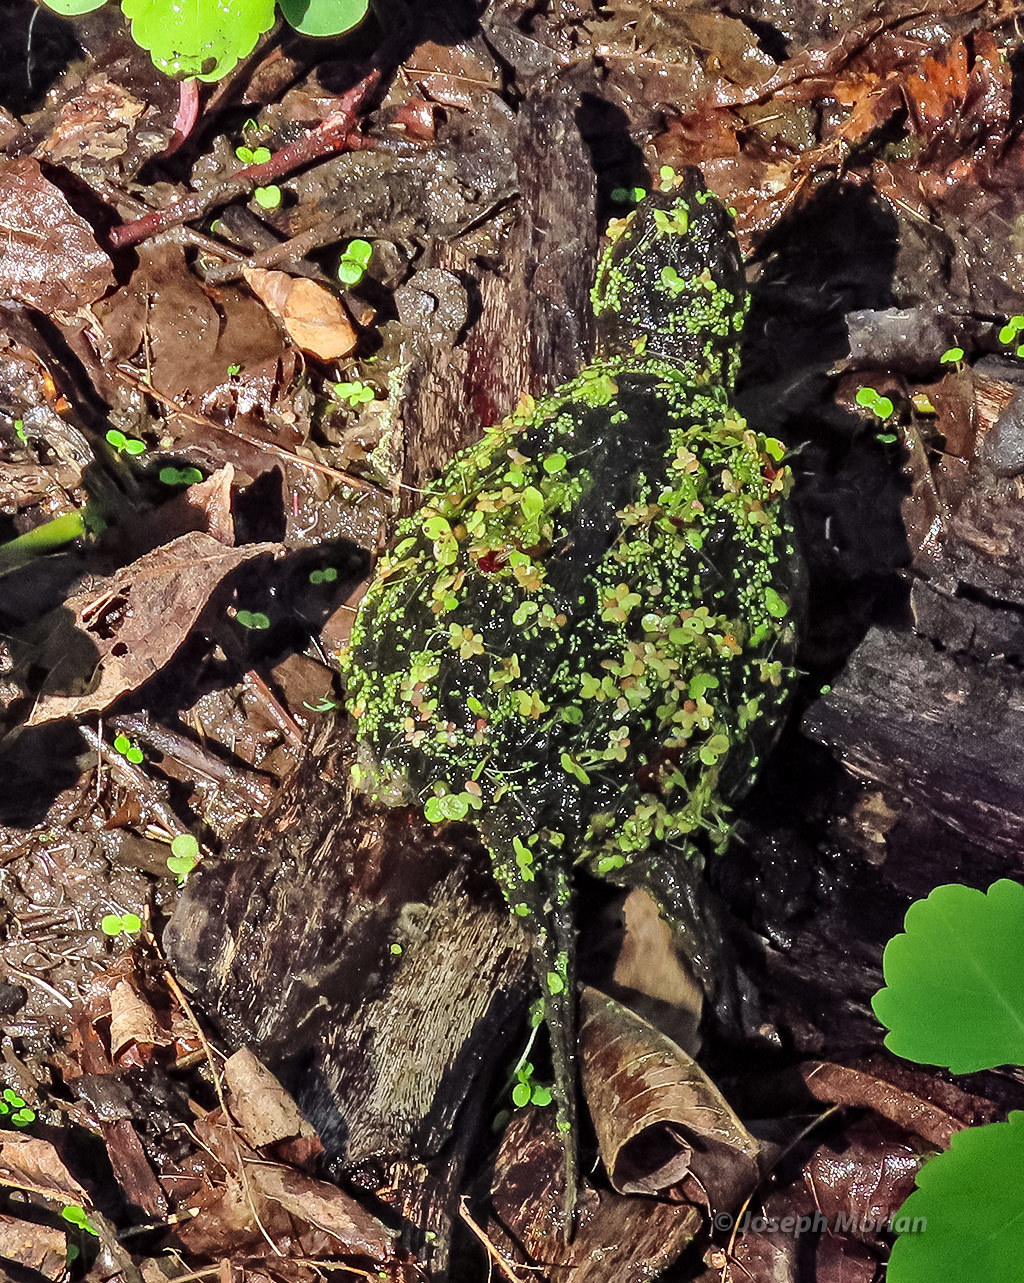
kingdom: Animalia
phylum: Chordata
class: Testudines
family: Chelydridae
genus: Chelydra
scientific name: Chelydra serpentina
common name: Common snapping turtle
